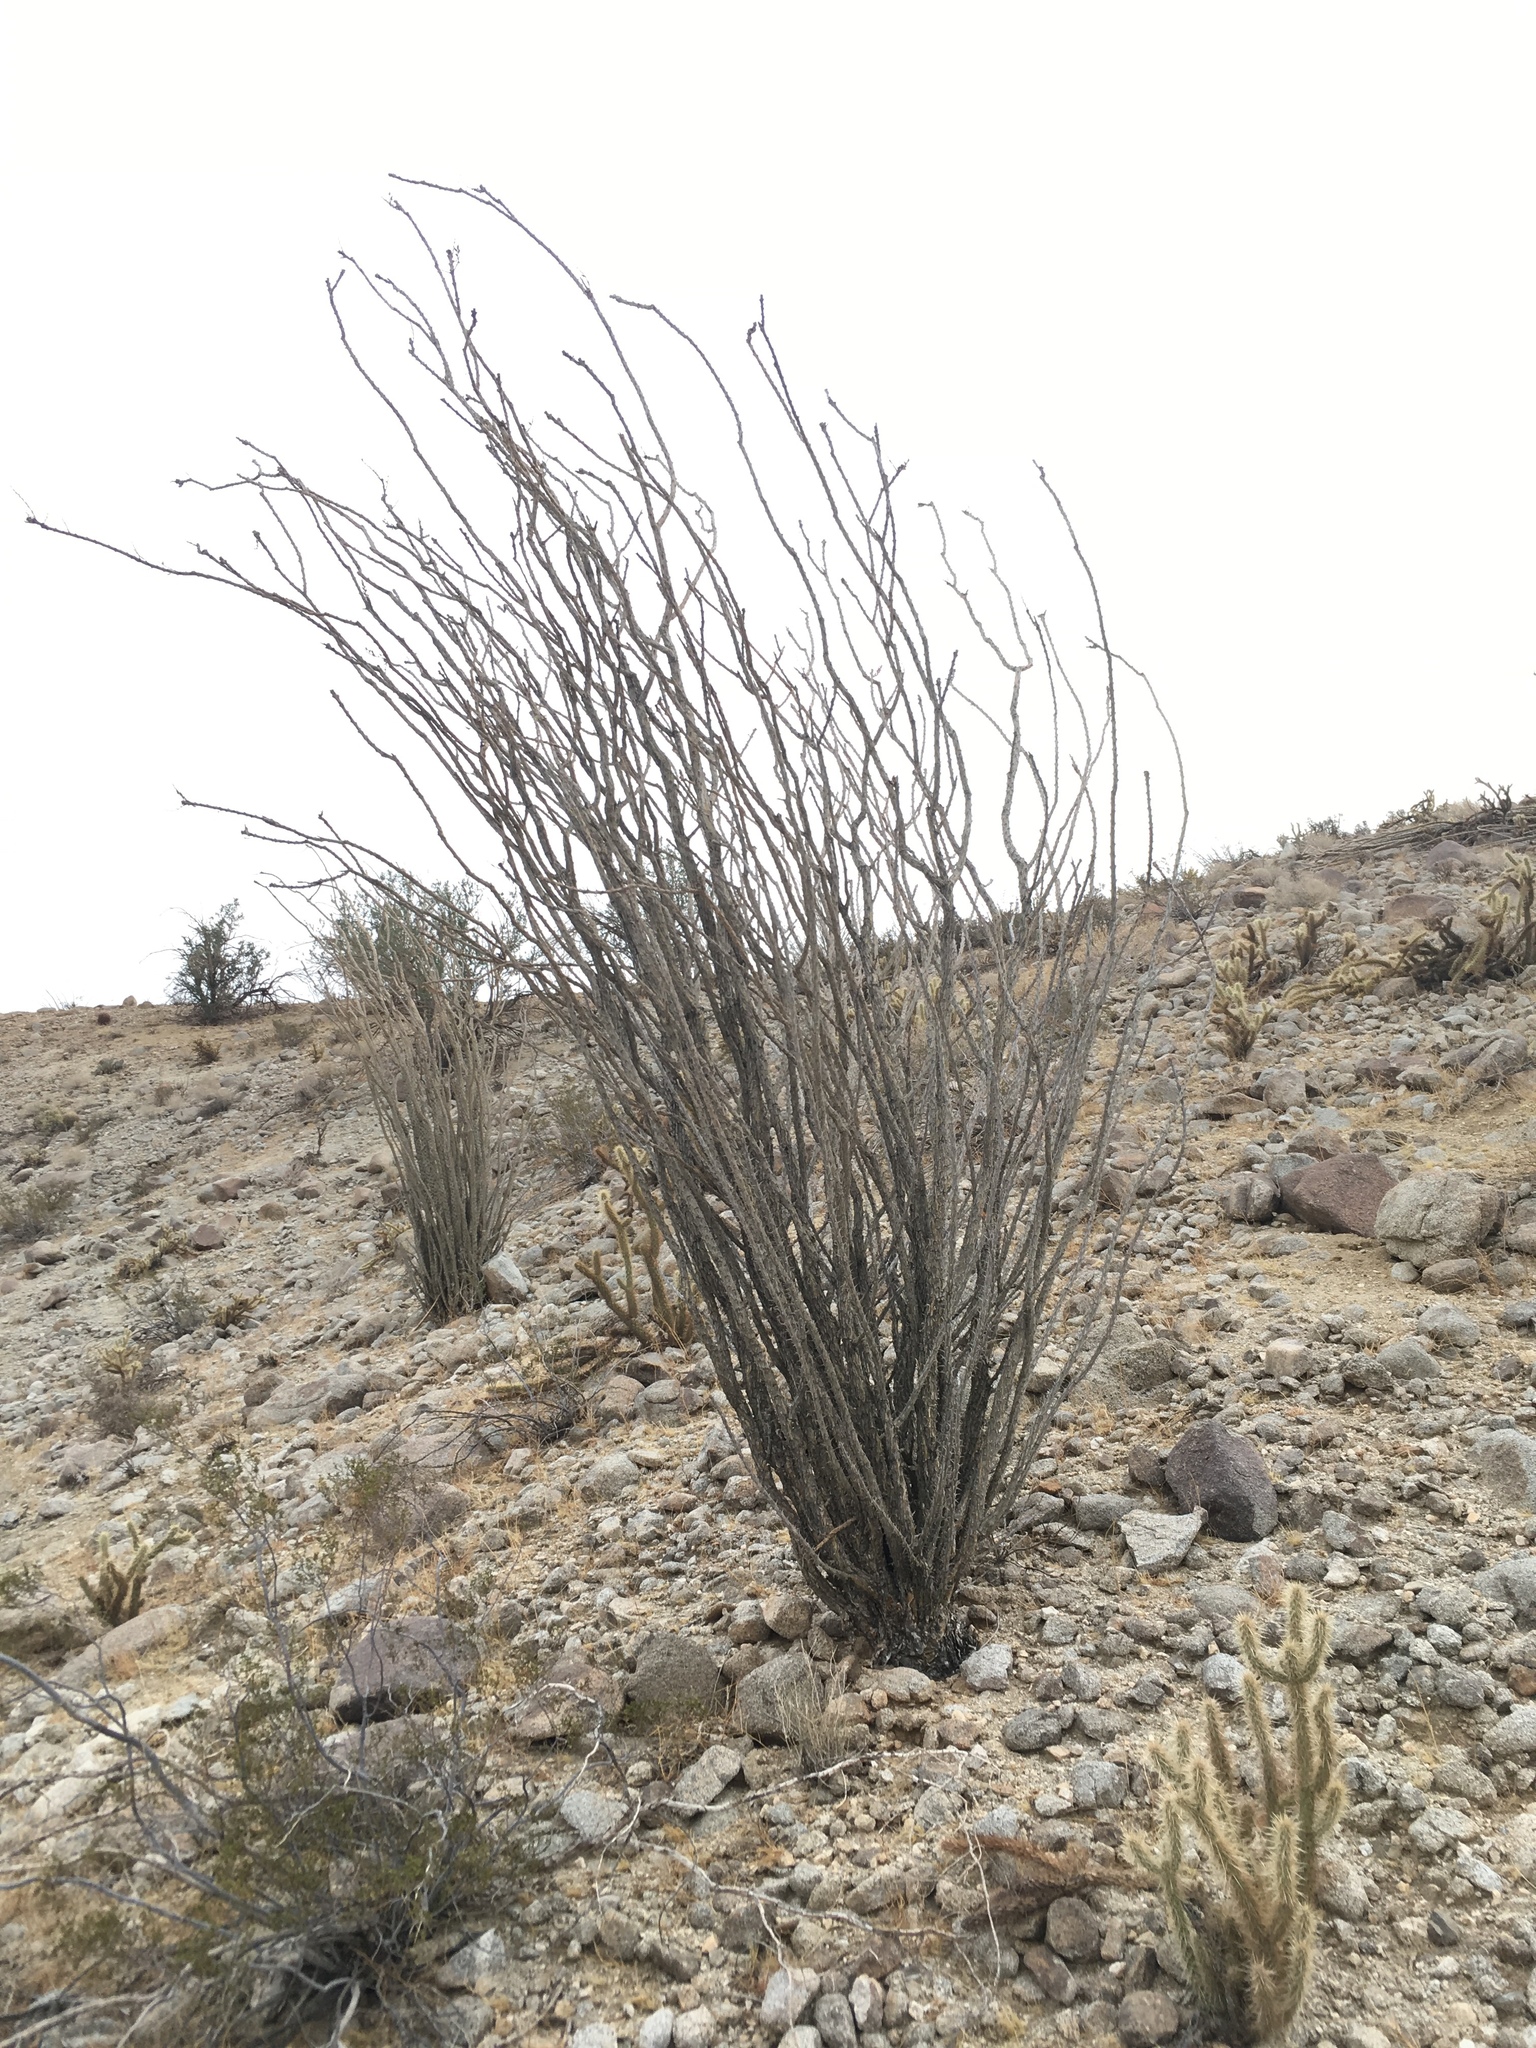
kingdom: Plantae
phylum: Tracheophyta
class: Magnoliopsida
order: Ericales
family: Fouquieriaceae
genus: Fouquieria
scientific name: Fouquieria splendens
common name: Vine-cactus
